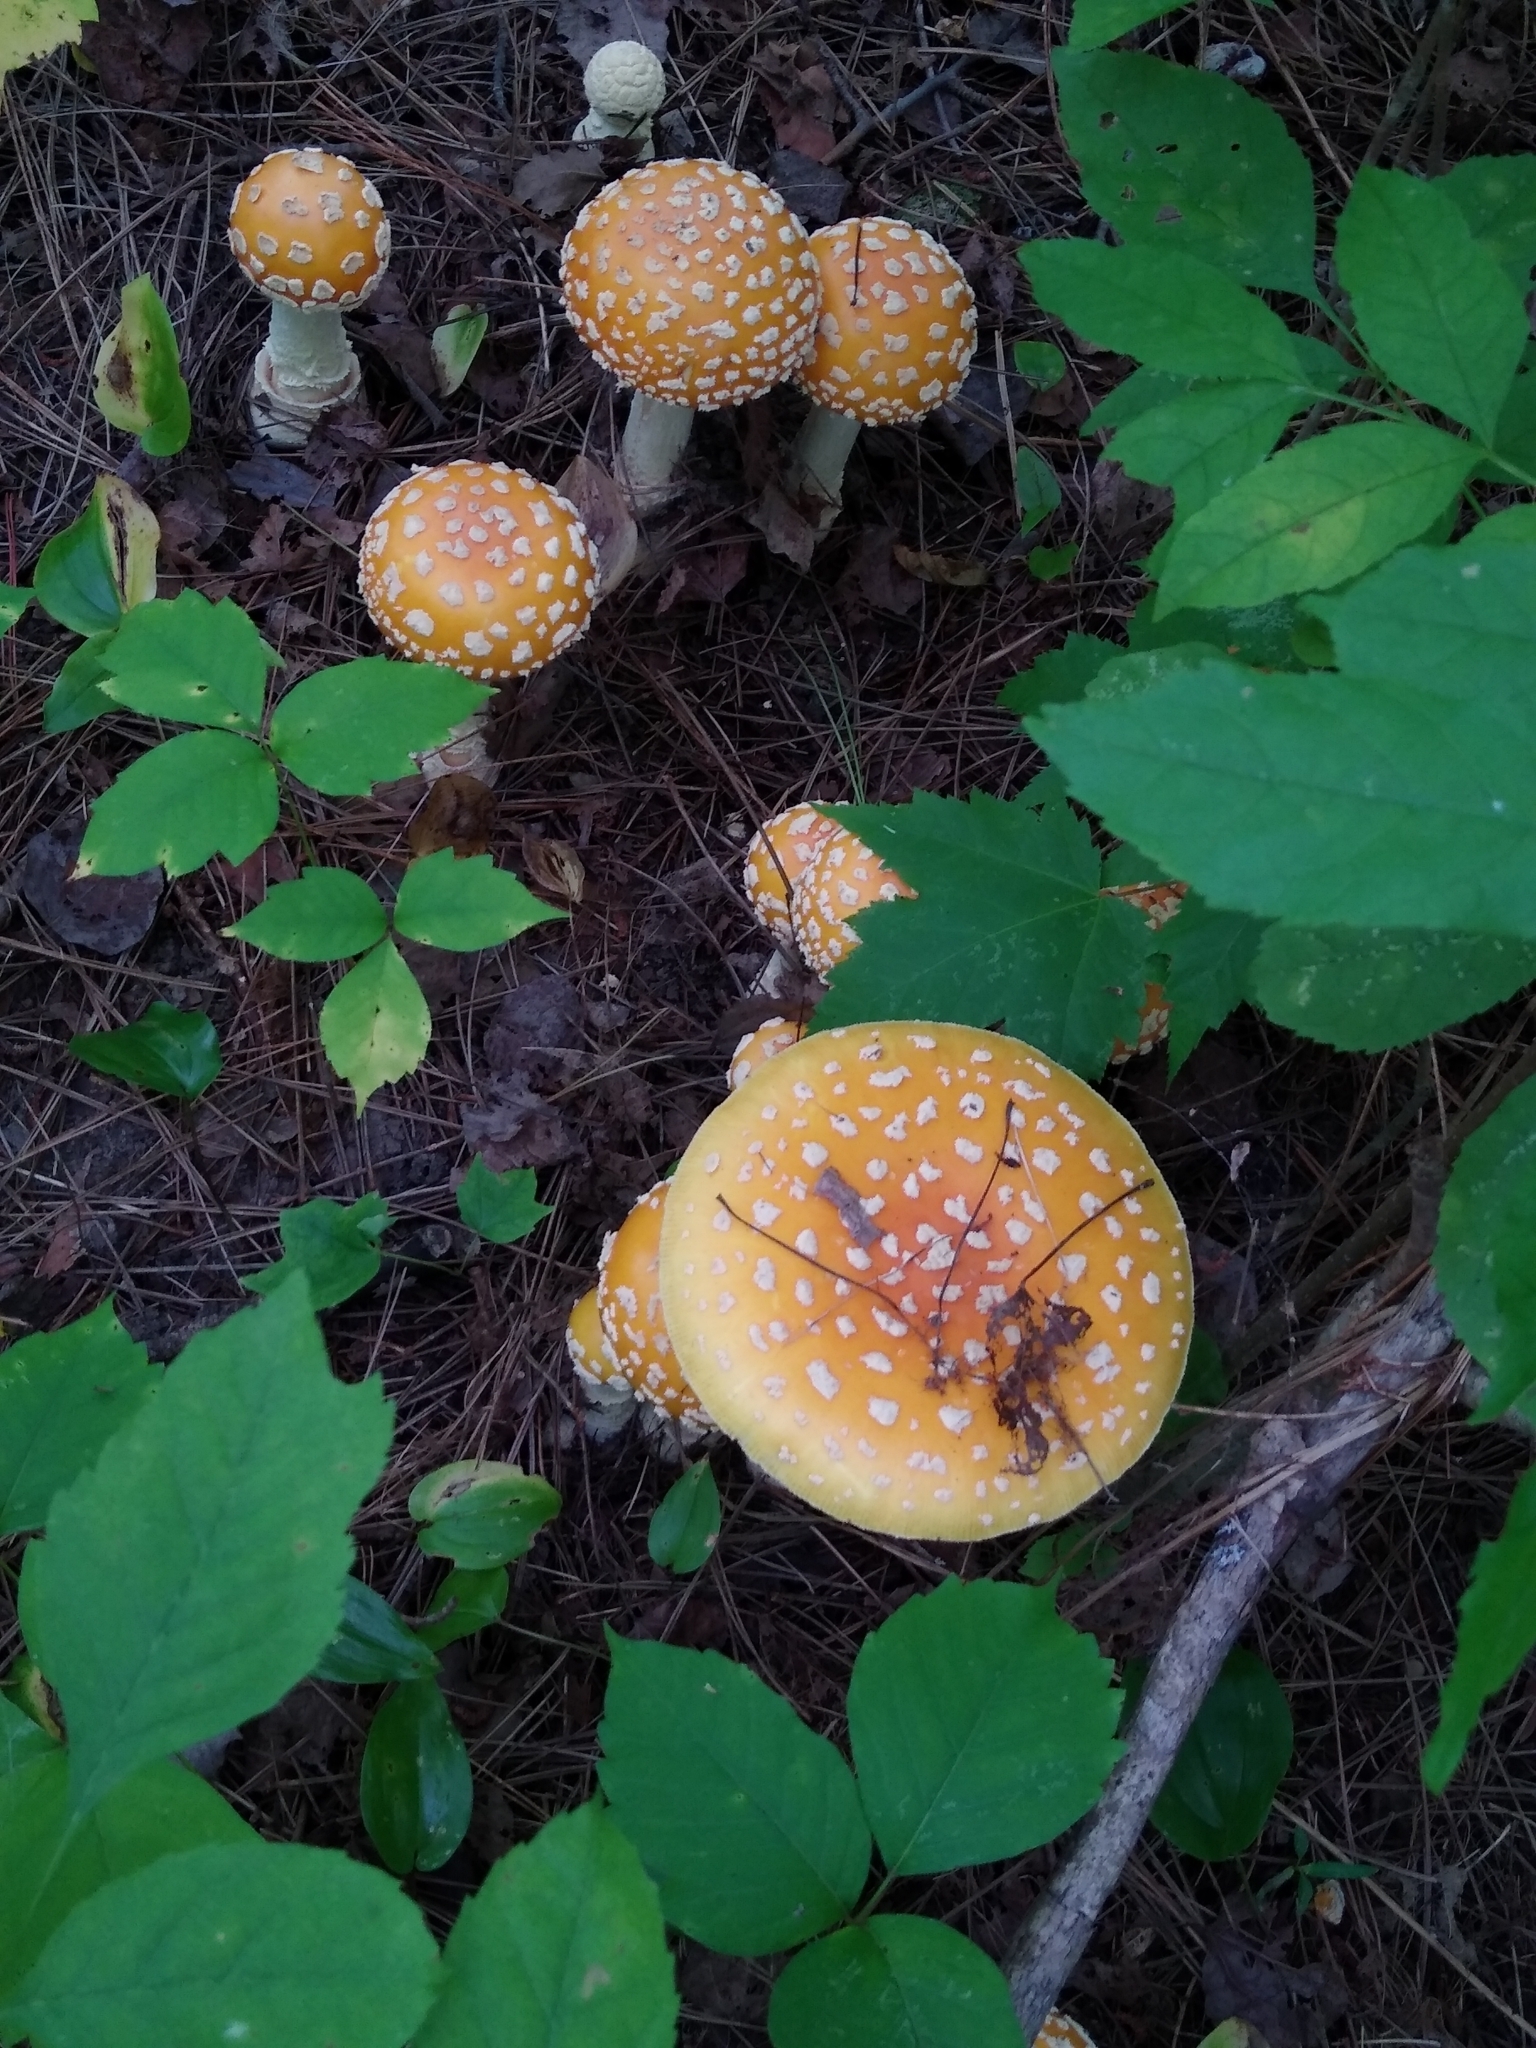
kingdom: Fungi
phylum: Basidiomycota
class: Agaricomycetes
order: Agaricales
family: Amanitaceae
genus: Amanita
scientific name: Amanita muscaria
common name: Fly agaric
